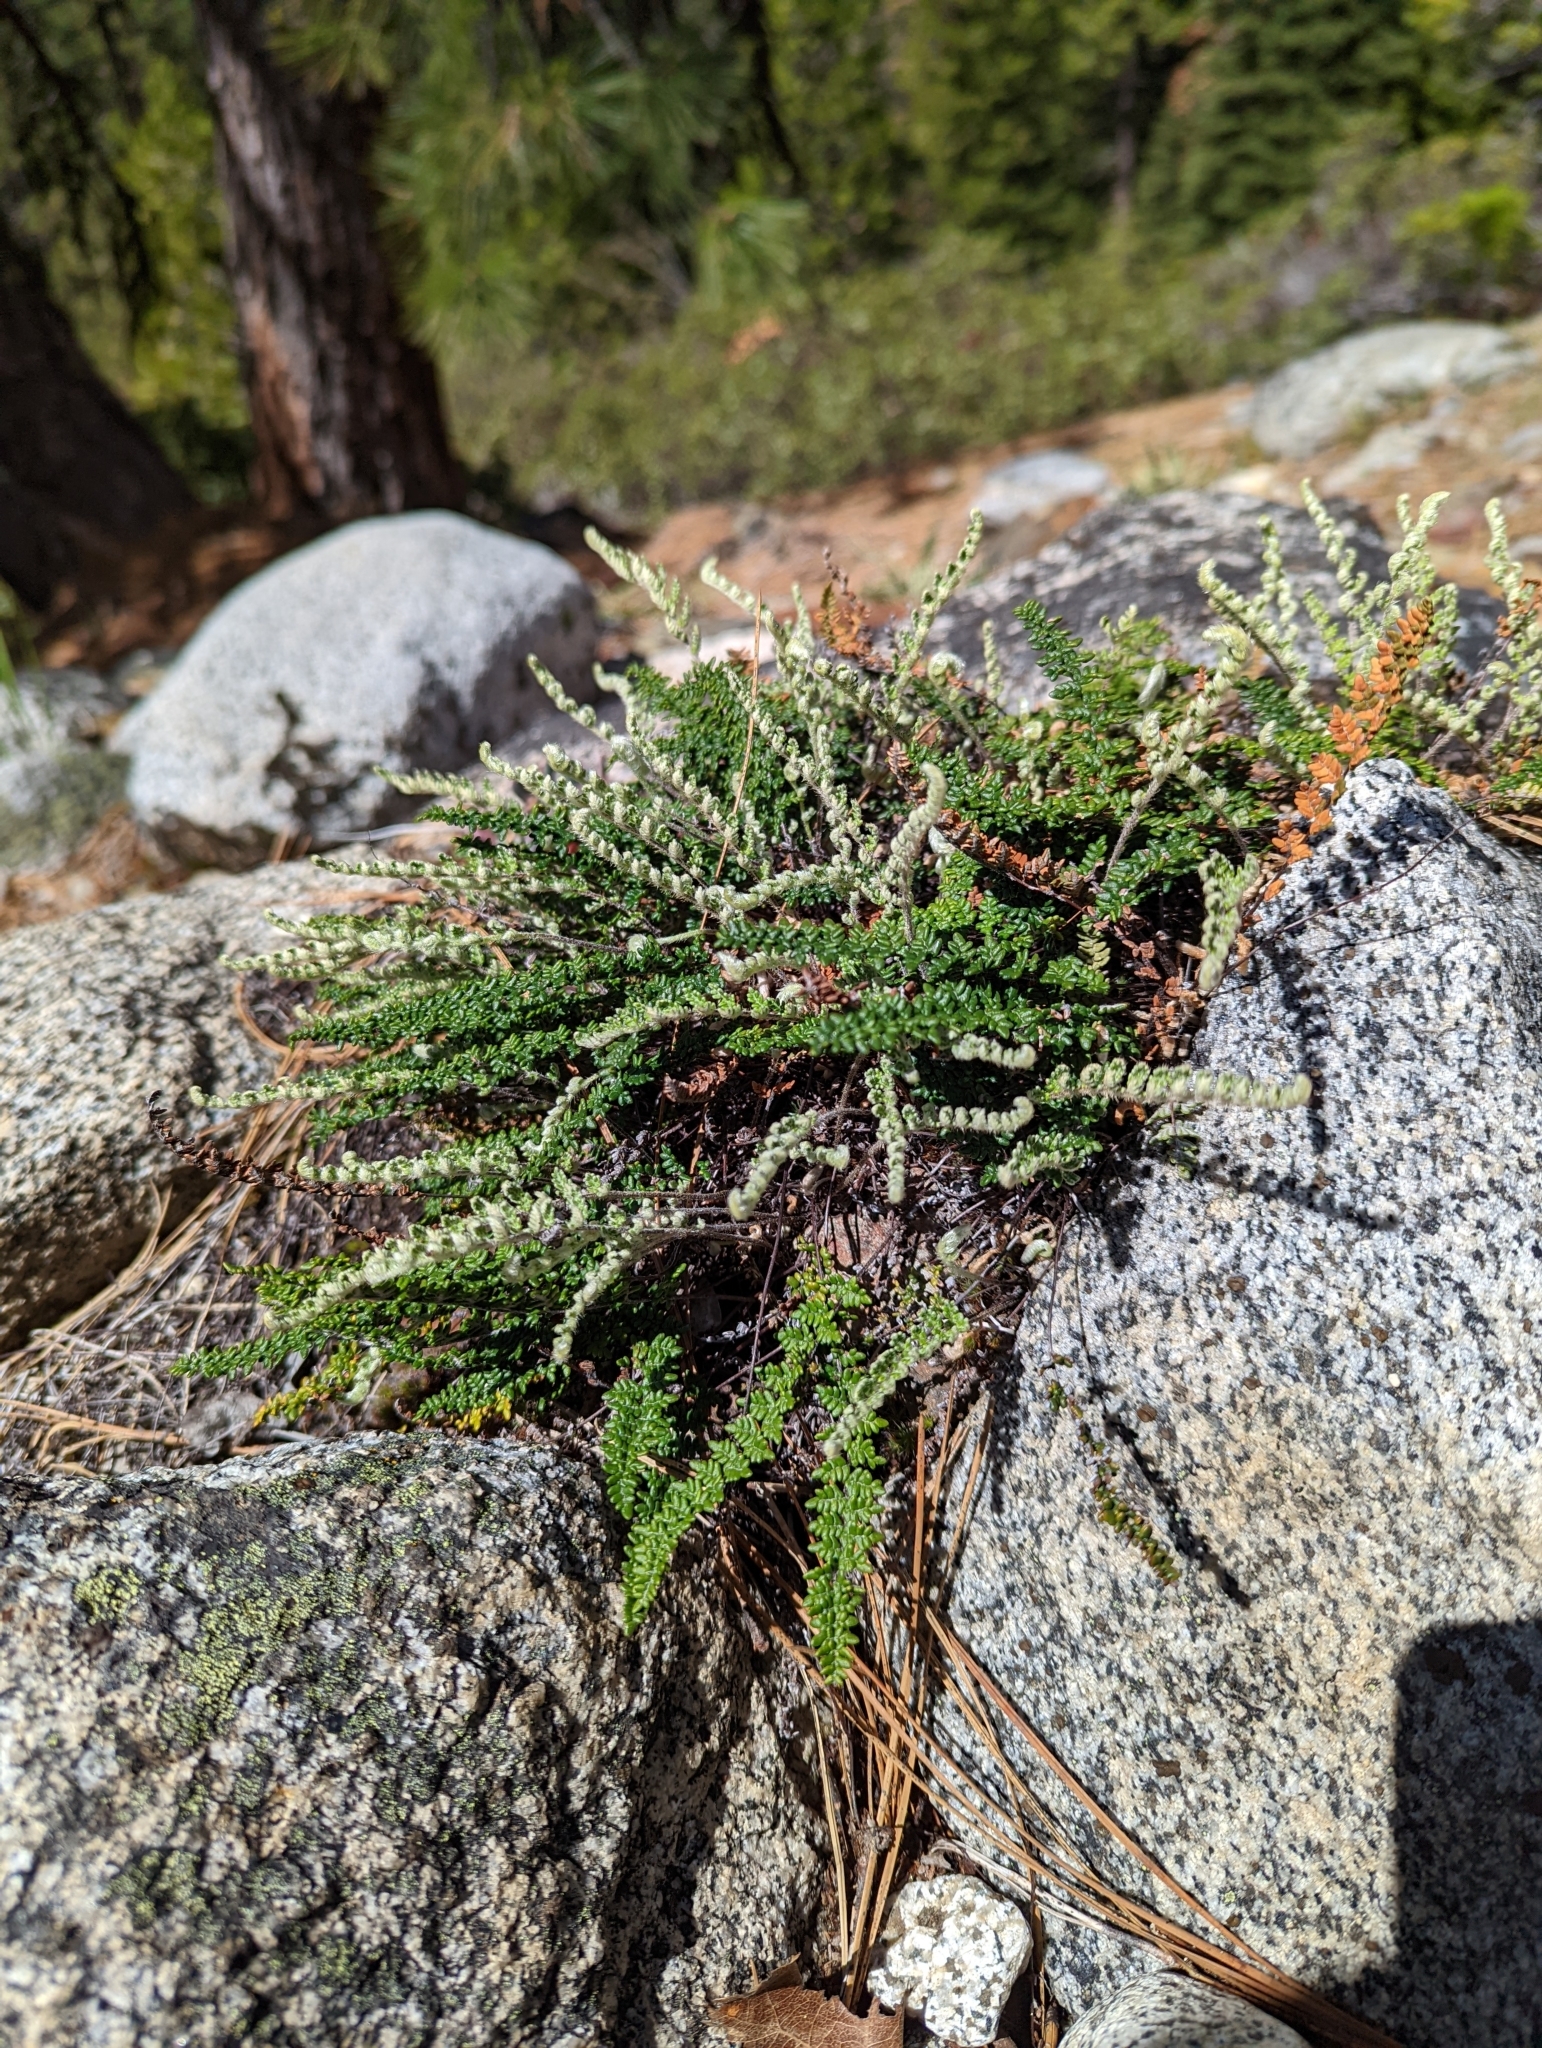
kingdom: Plantae
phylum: Tracheophyta
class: Polypodiopsida
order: Polypodiales
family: Pteridaceae
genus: Myriopteris
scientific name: Myriopteris gracillima
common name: Lace fern
